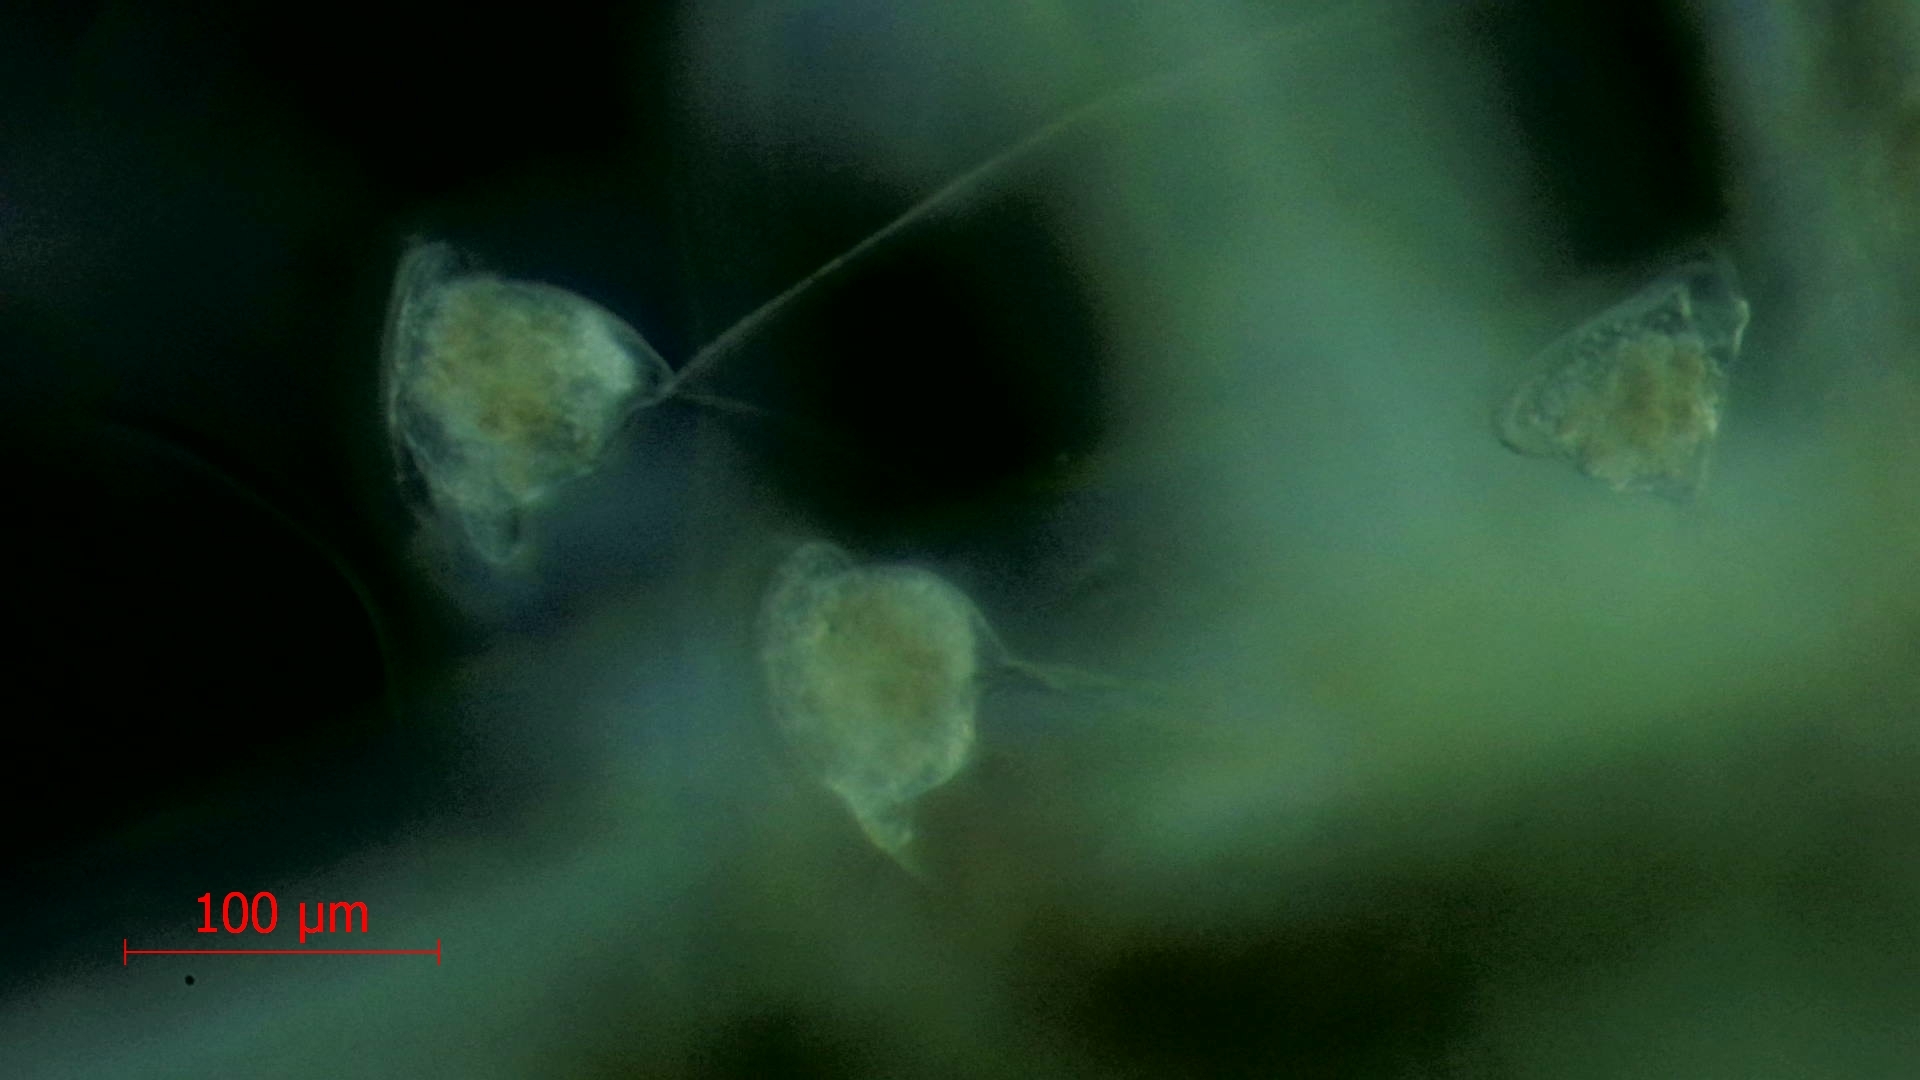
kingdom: Chromista
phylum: Ciliophora
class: Oligohymenophorea
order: Peritrichida
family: Vorticellidae
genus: Vorticella
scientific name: Vorticella campanulla
